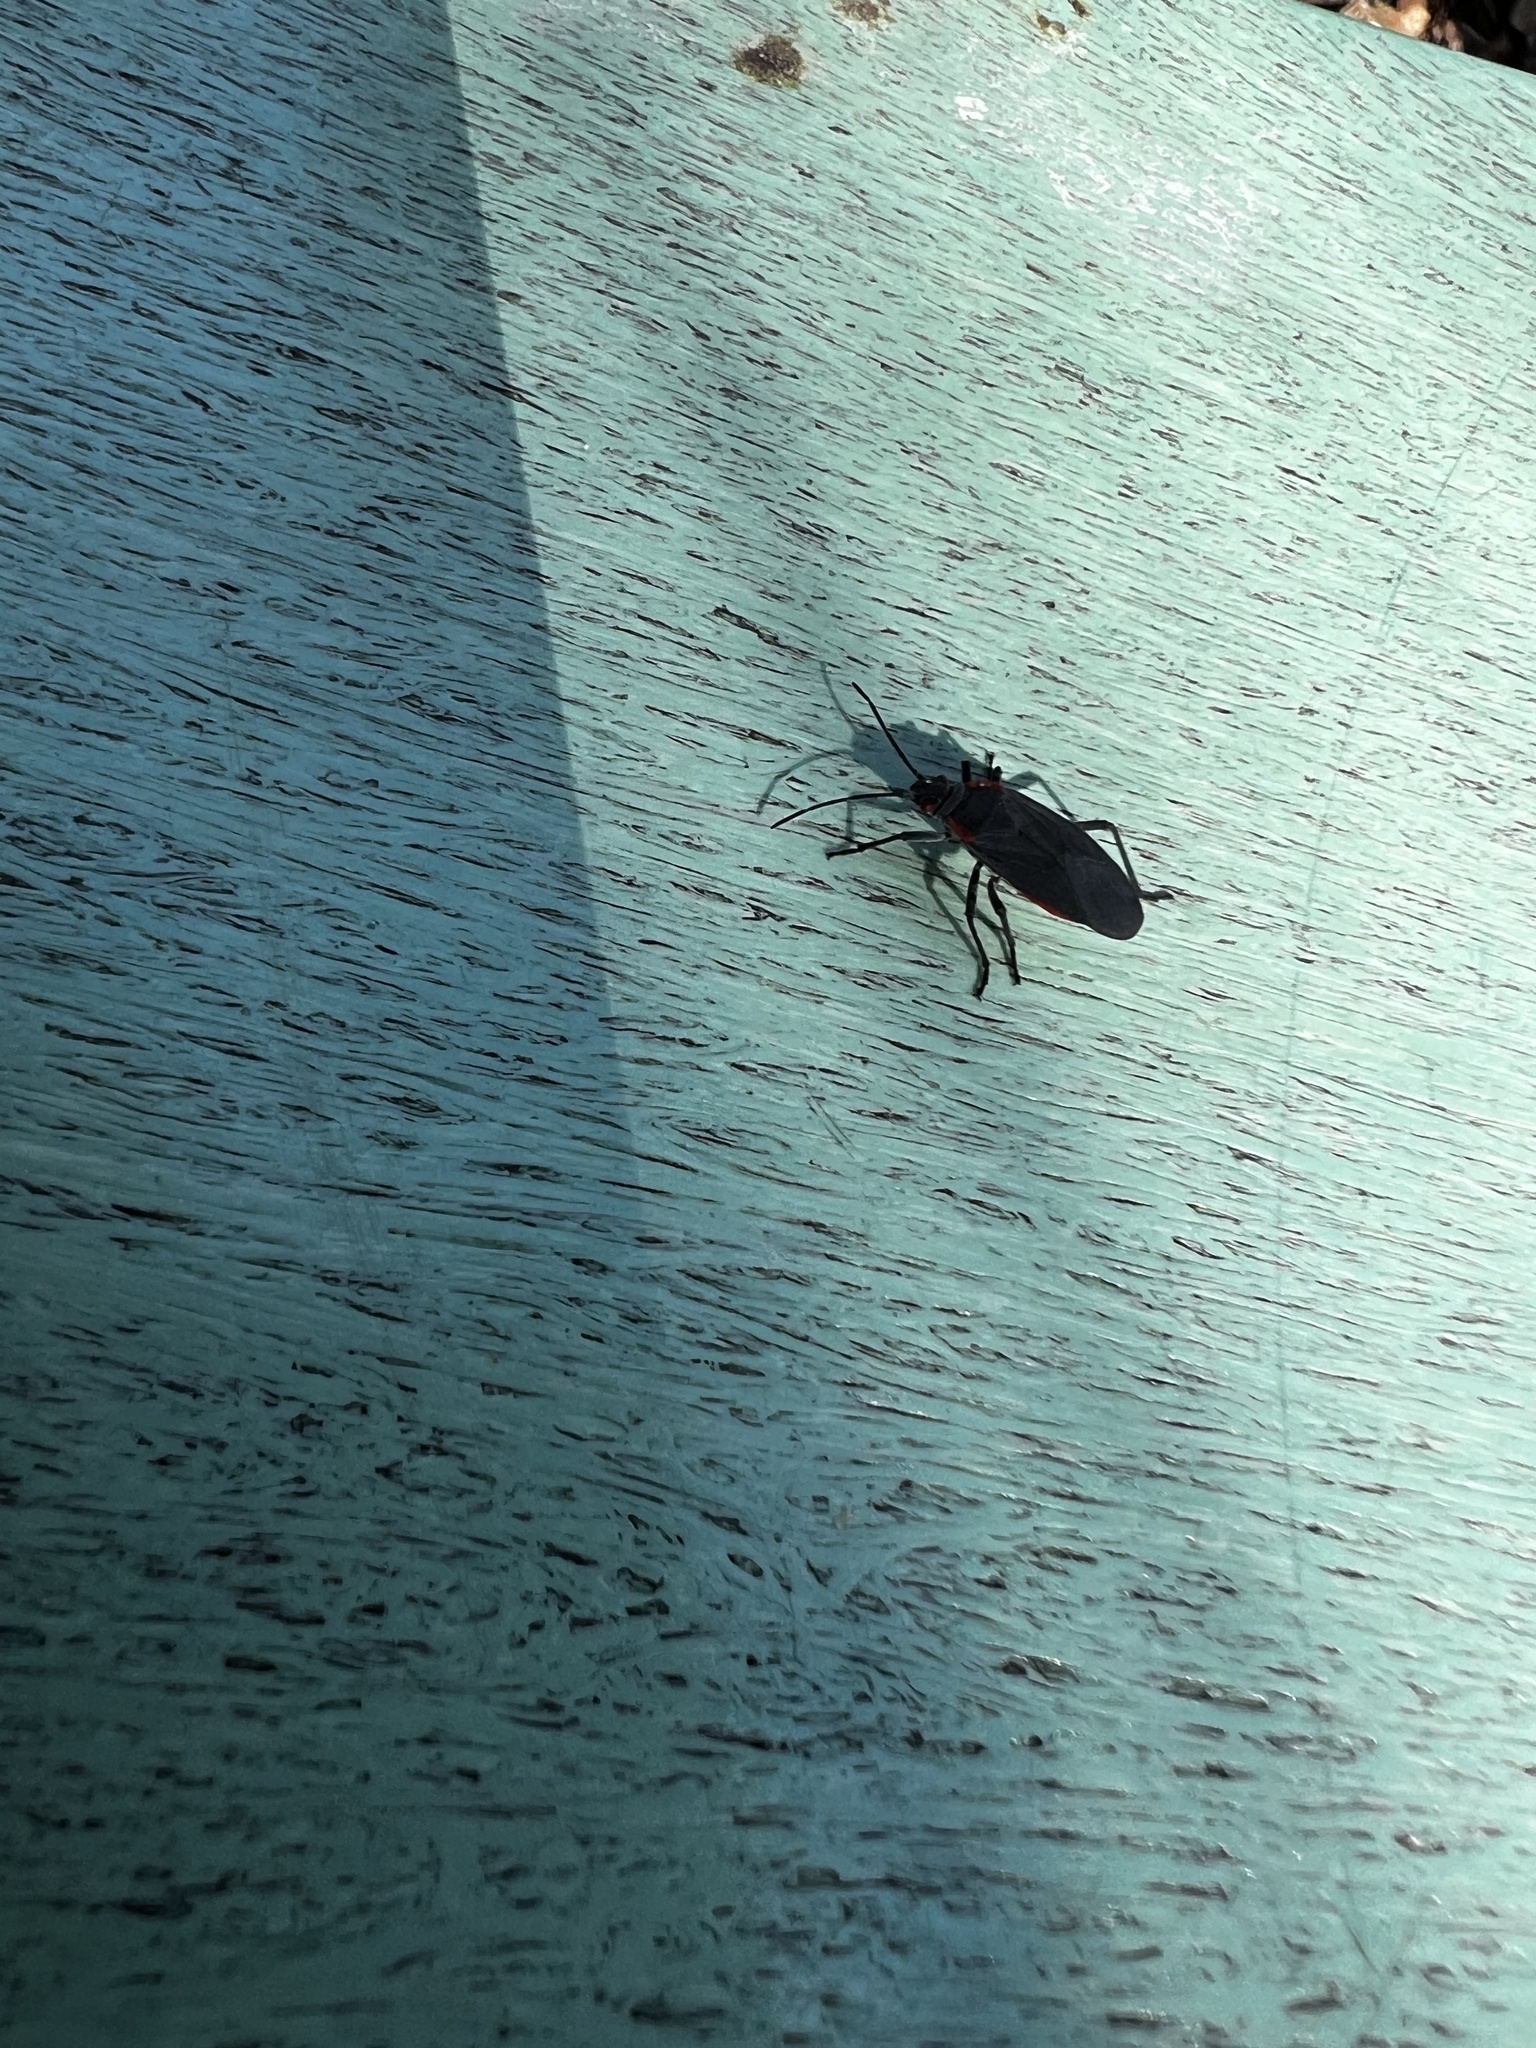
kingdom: Animalia
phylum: Arthropoda
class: Insecta
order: Hemiptera
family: Rhopalidae
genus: Jadera
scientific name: Jadera haematoloma
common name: Red-shouldered bug
